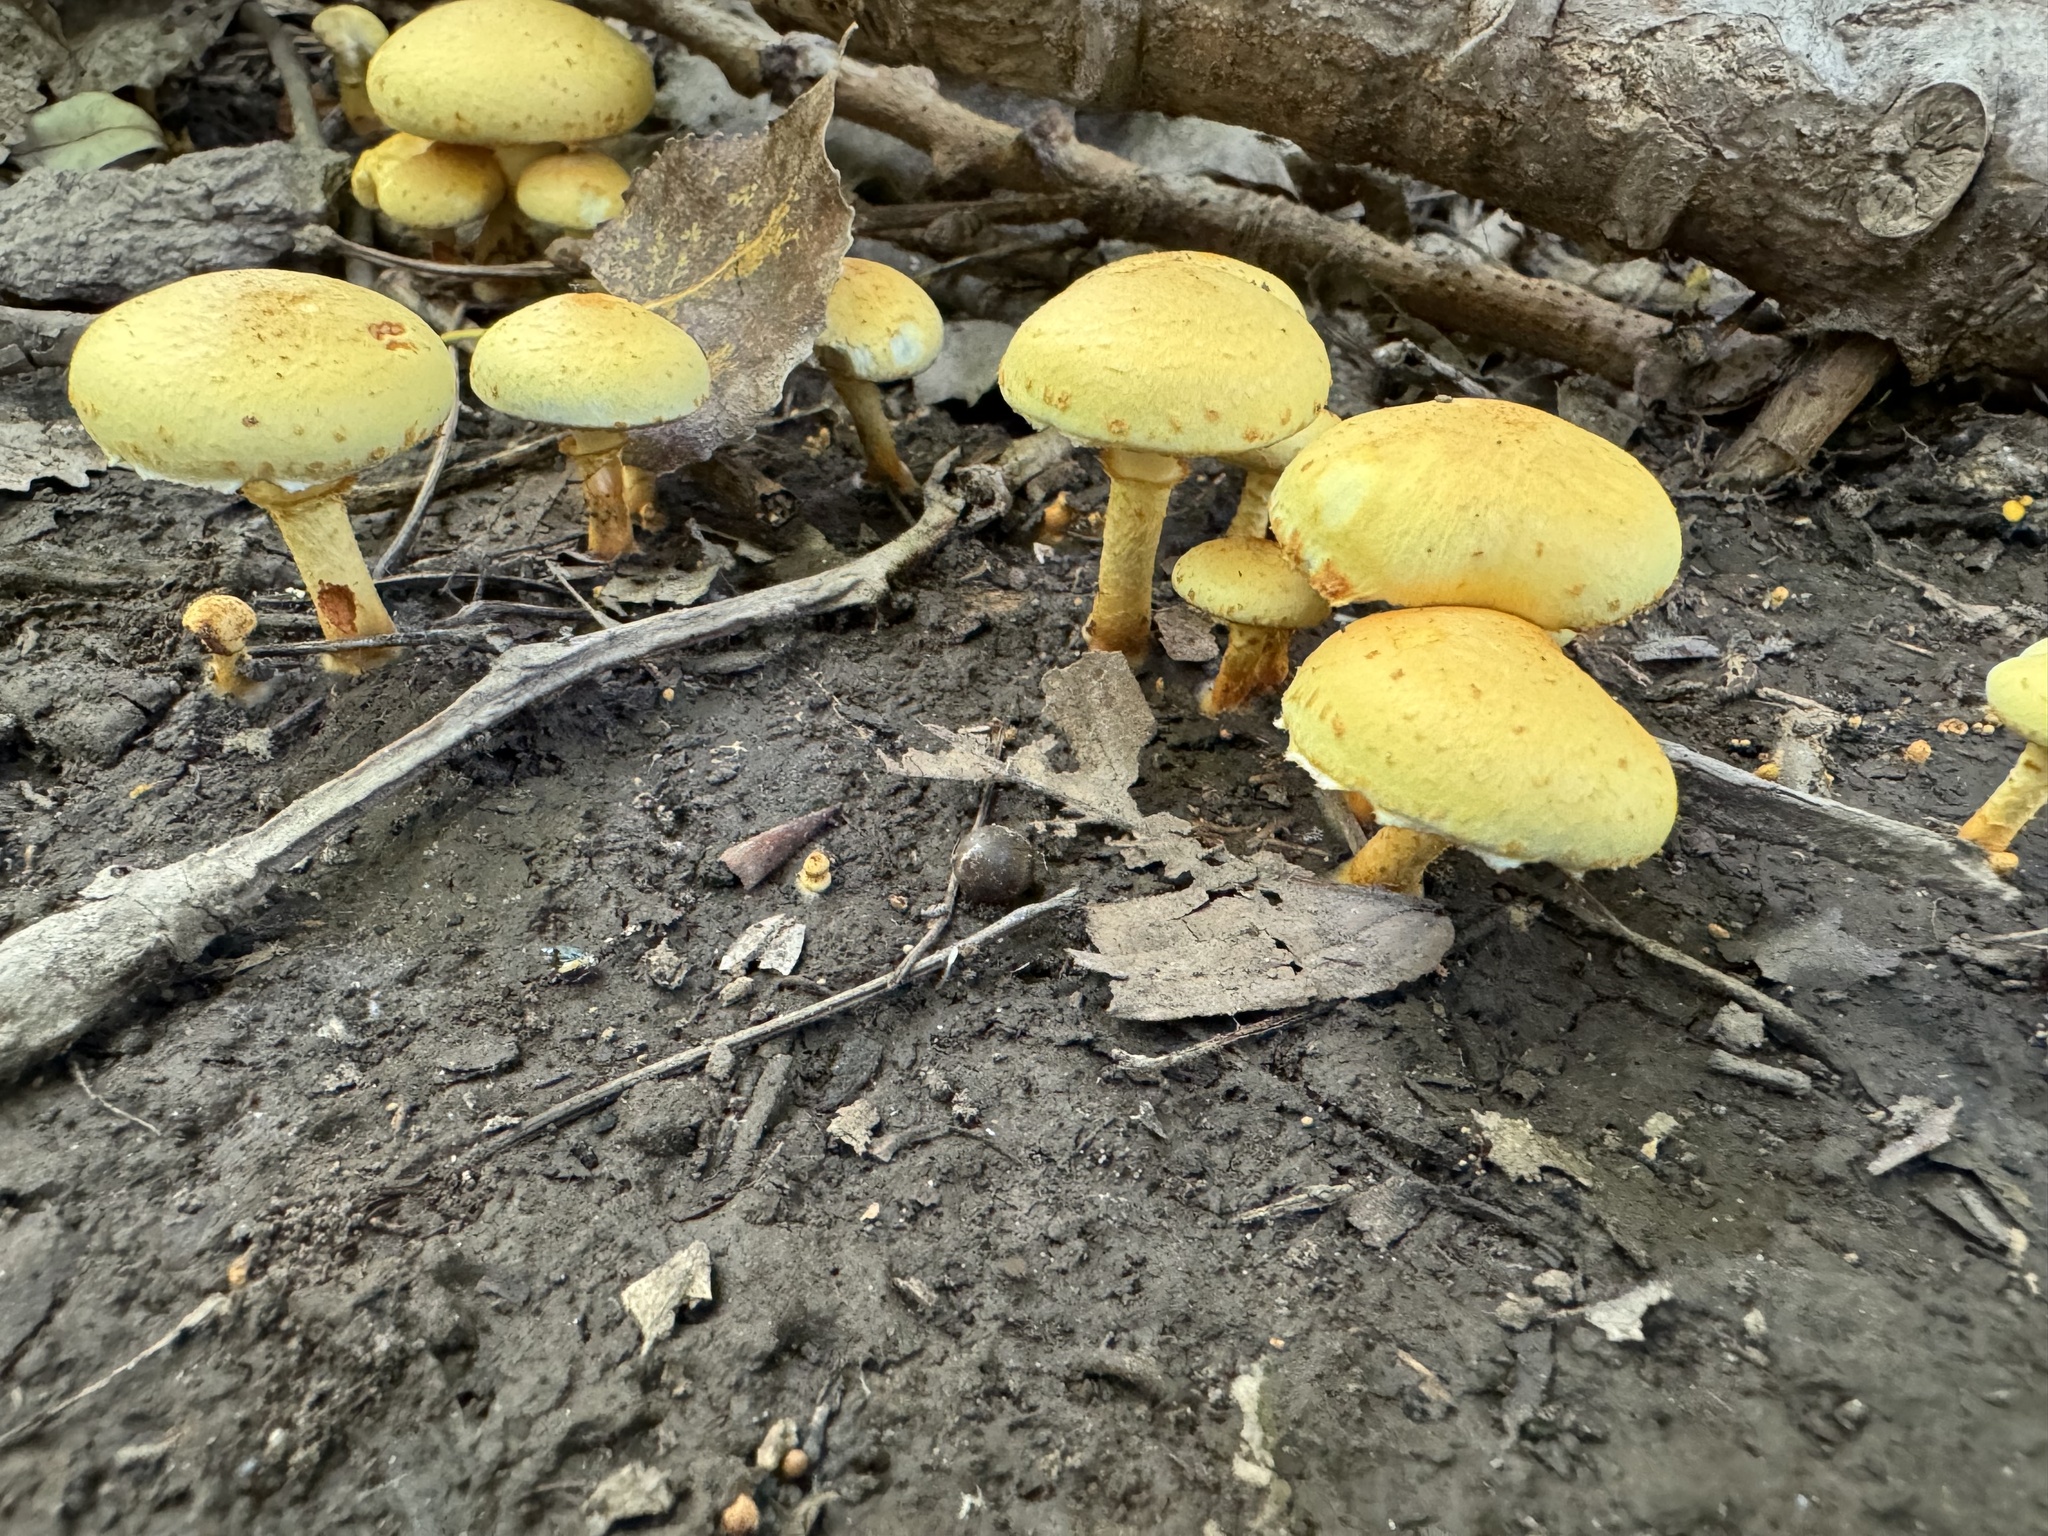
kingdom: Fungi
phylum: Basidiomycota
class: Agaricomycetes
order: Agaricales
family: Strophariaceae
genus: Pholiota
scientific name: Pholiota aurivella
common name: Golden scalycap
